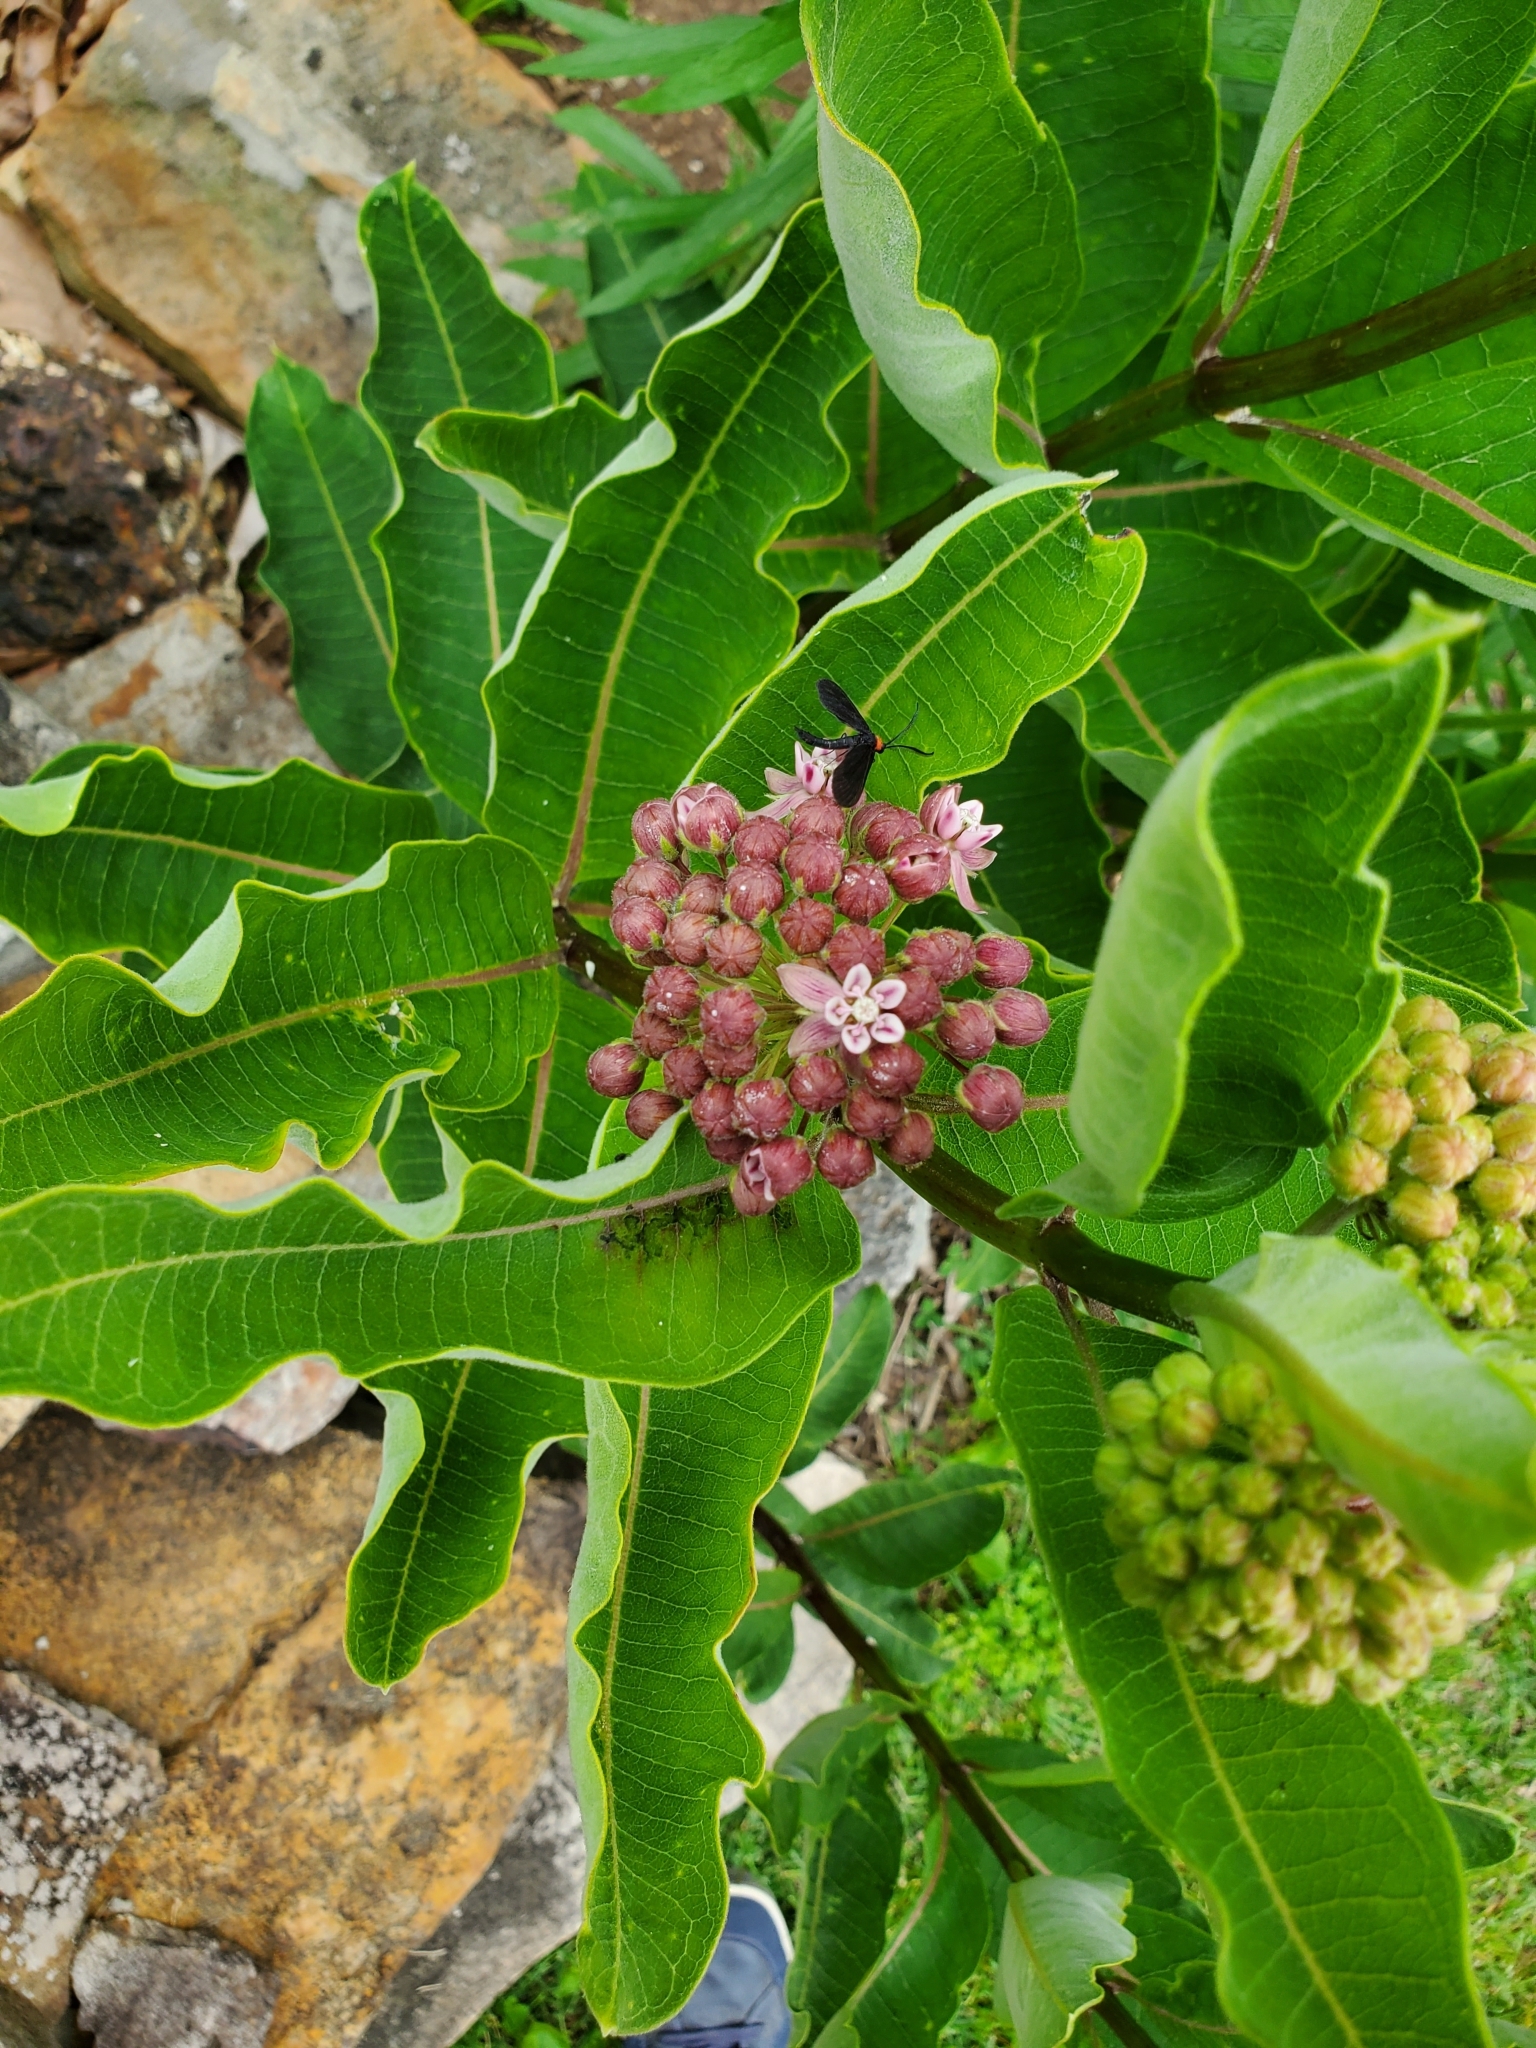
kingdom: Plantae
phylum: Tracheophyta
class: Magnoliopsida
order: Gentianales
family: Apocynaceae
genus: Asclepias
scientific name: Asclepias syriaca
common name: Common milkweed
